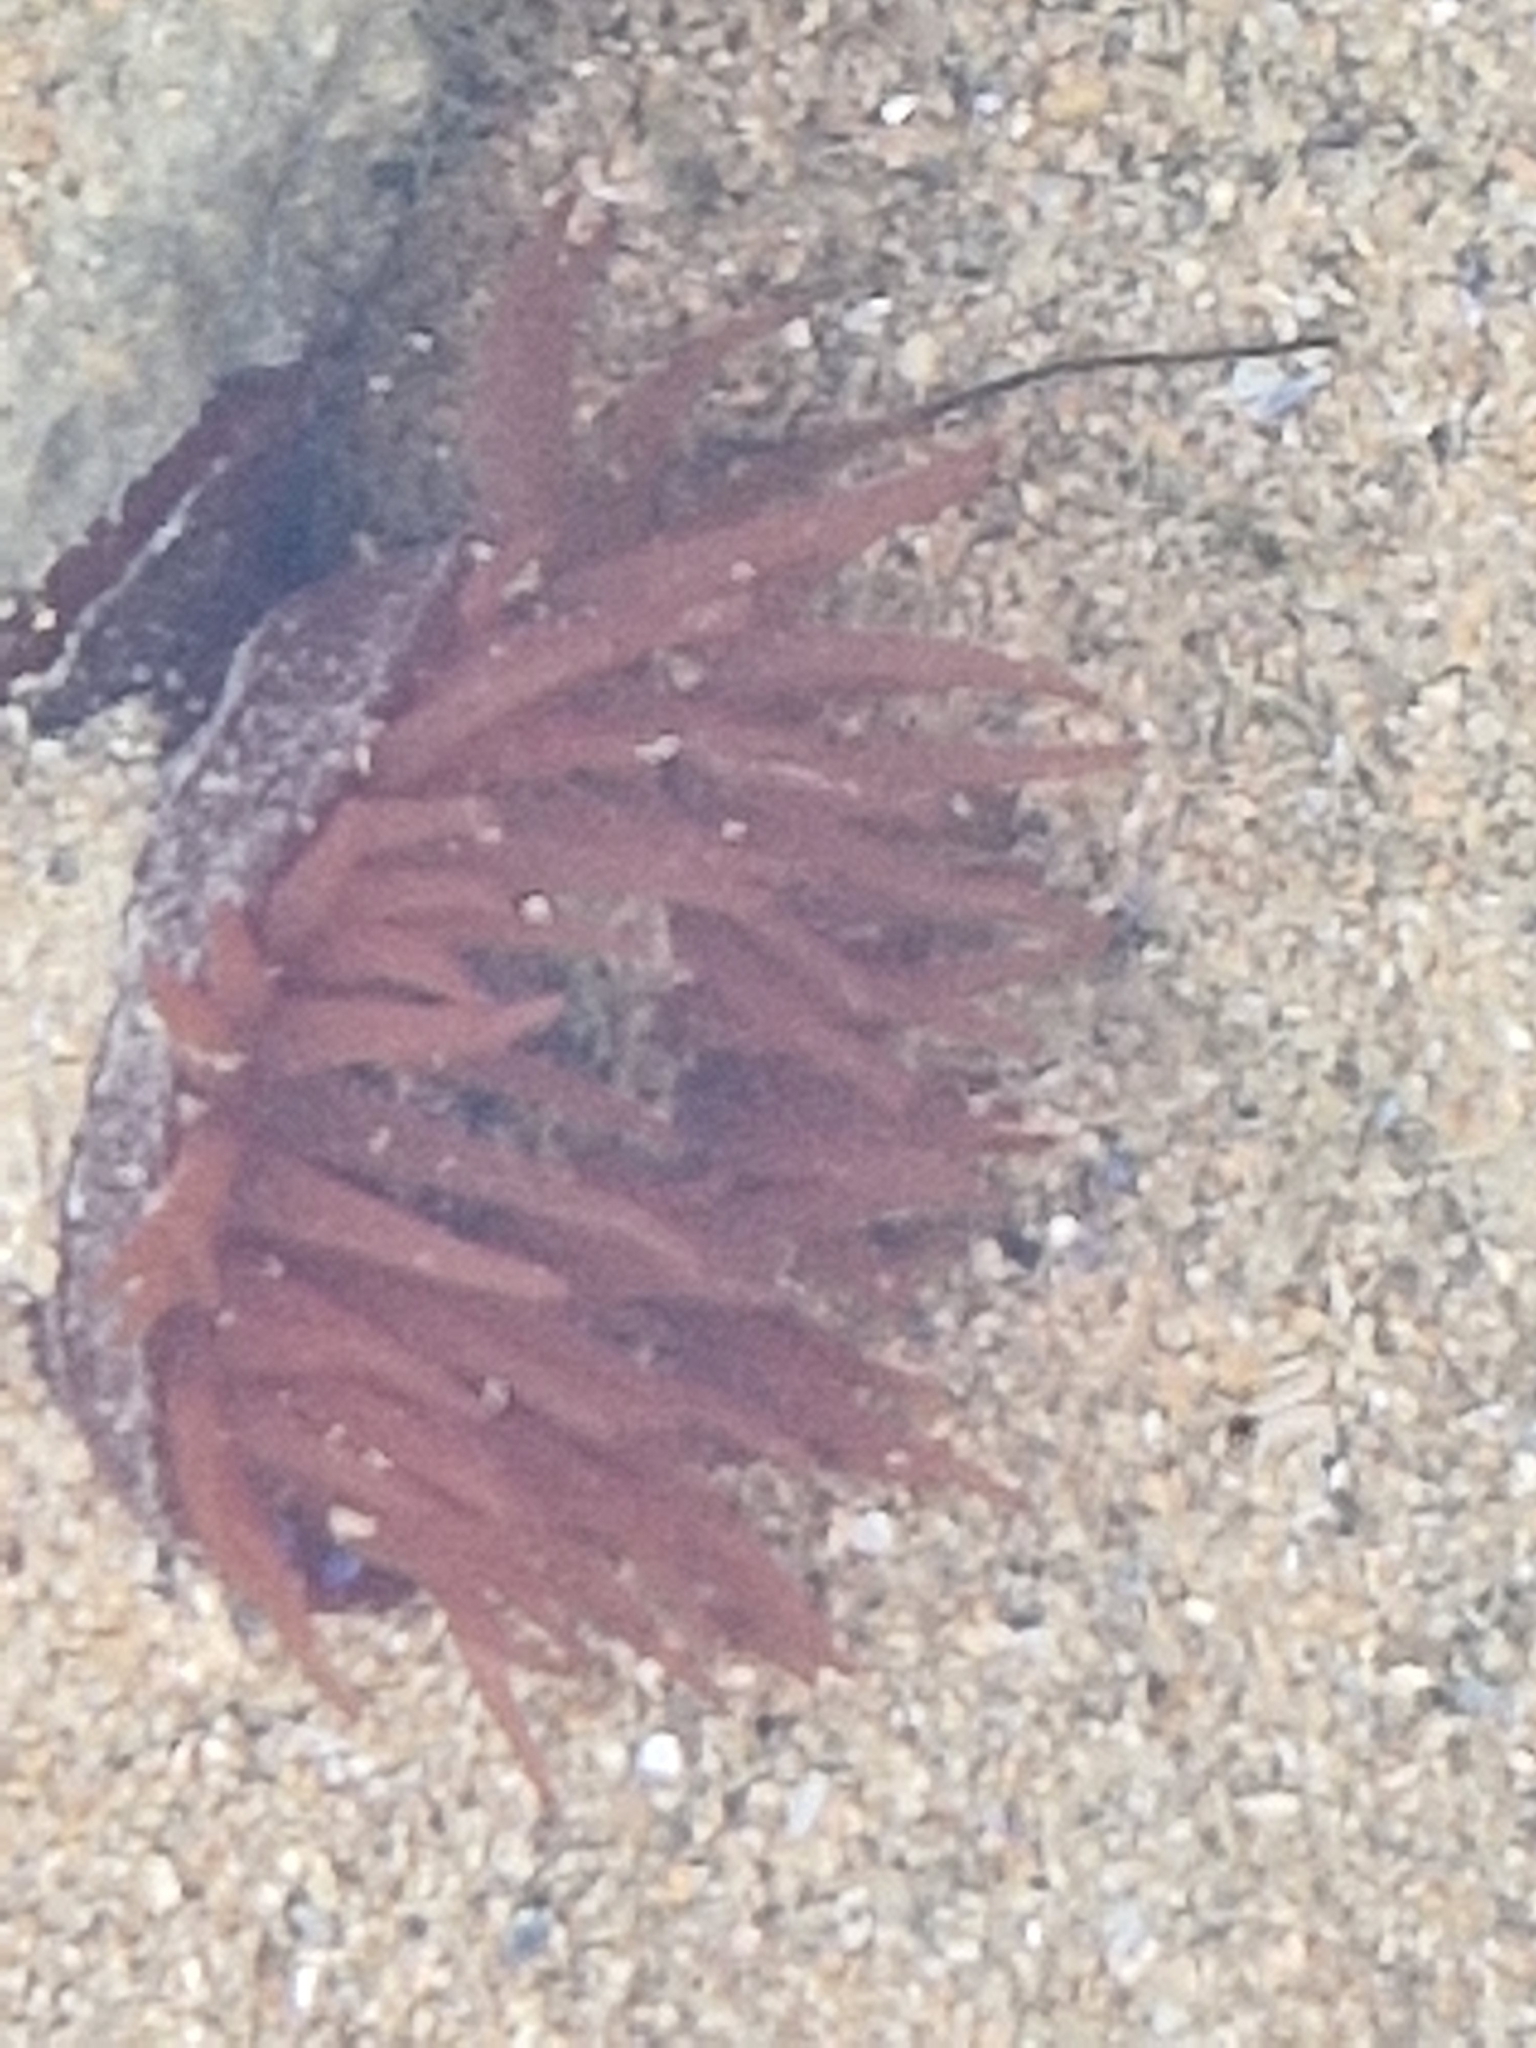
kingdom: Animalia
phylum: Cnidaria
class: Anthozoa
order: Actiniaria
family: Actiniidae
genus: Actinia
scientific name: Actinia equina
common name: Beadlet anemone
